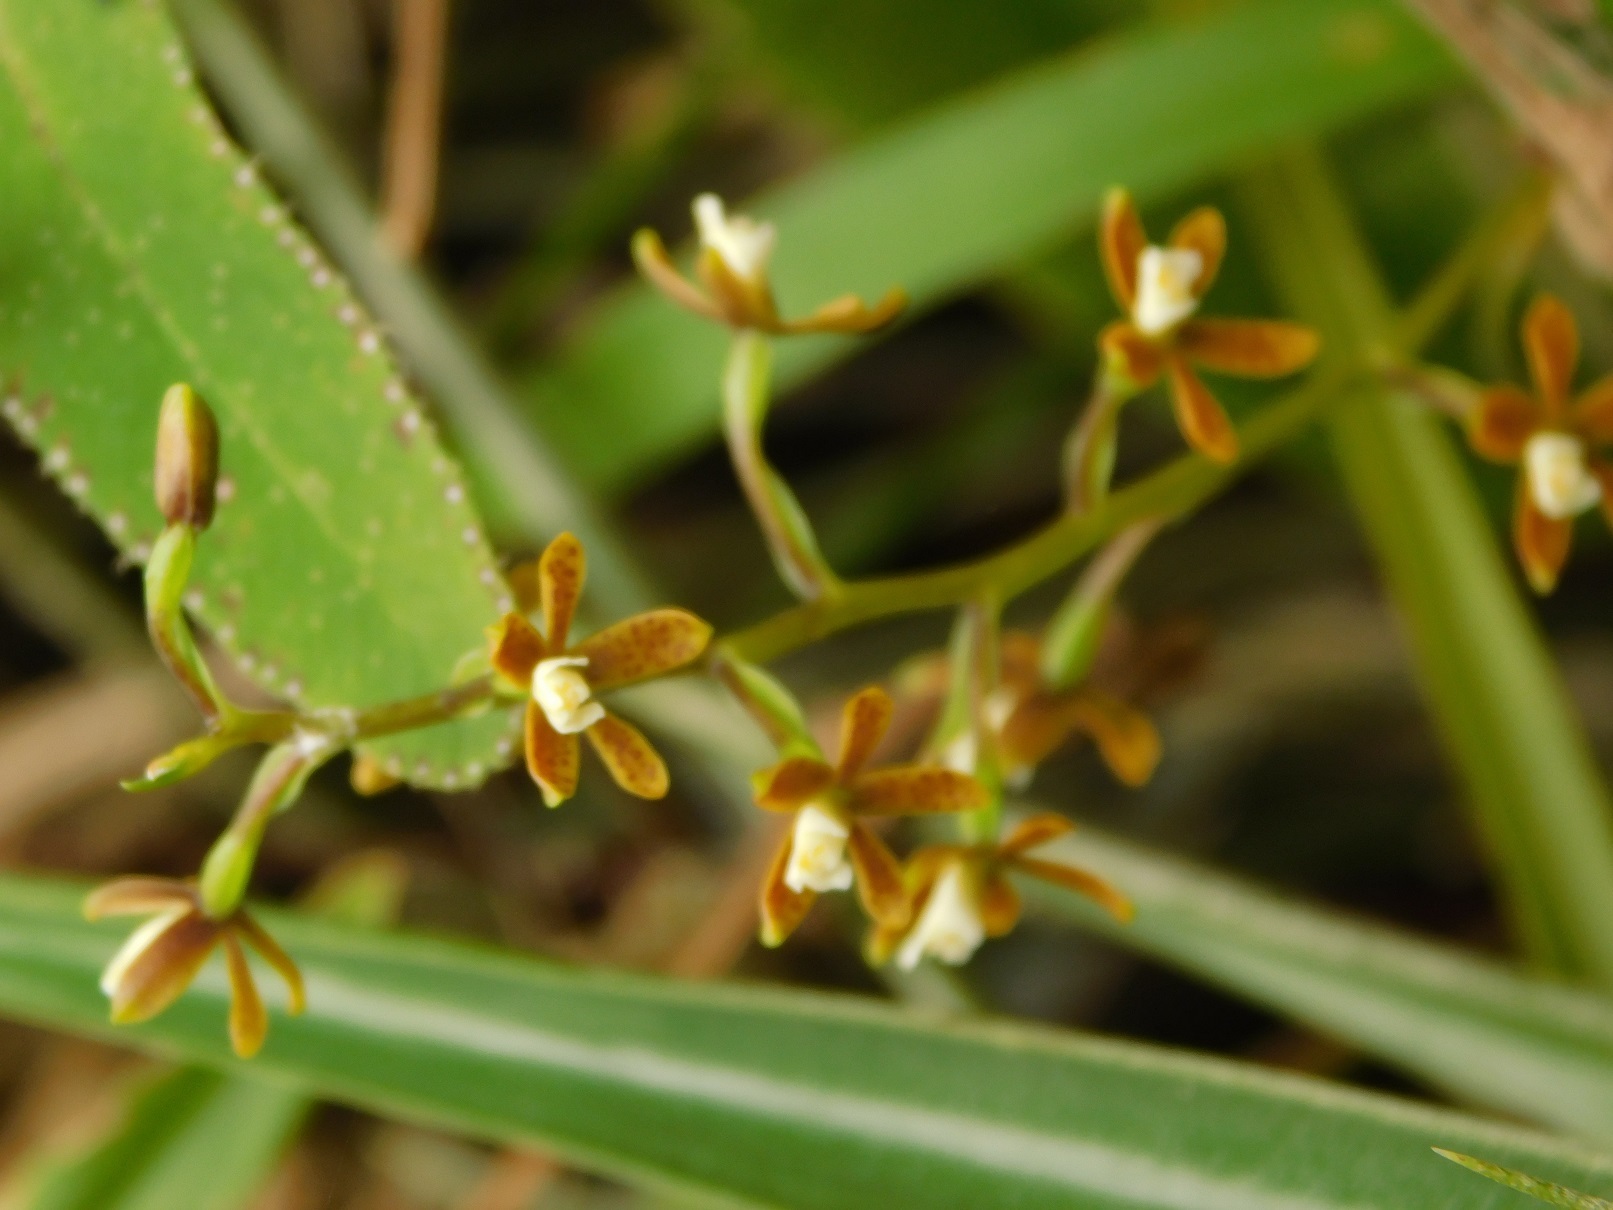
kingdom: Plantae
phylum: Tracheophyta
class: Liliopsida
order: Asparagales
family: Orchidaceae
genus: Prosthechea
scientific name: Prosthechea ochracea
